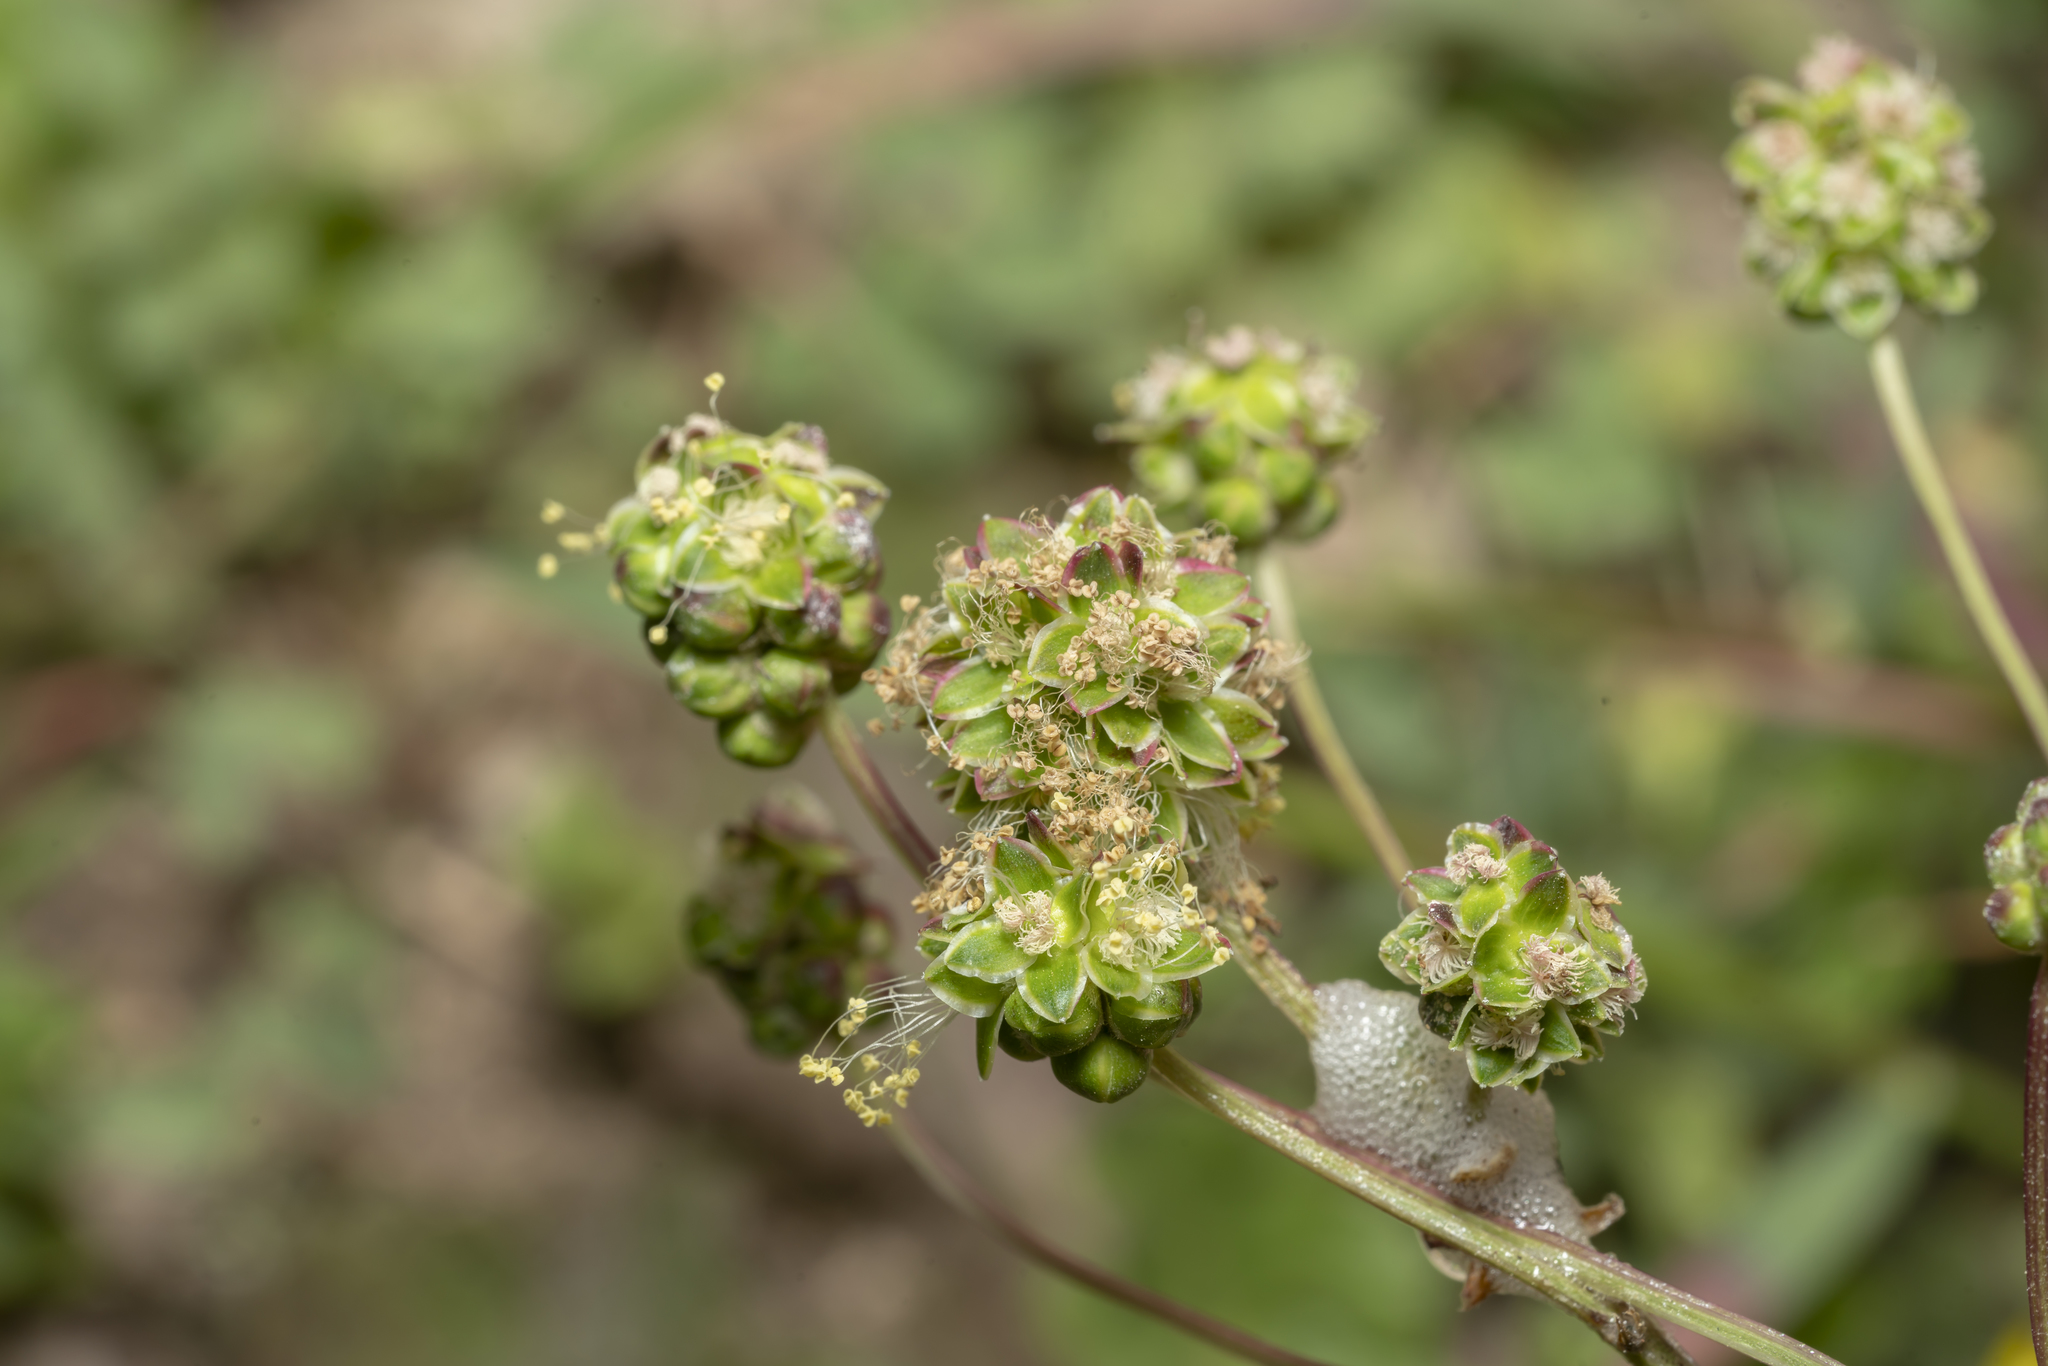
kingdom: Plantae
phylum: Tracheophyta
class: Magnoliopsida
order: Rosales
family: Rosaceae
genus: Poterium
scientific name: Poterium
